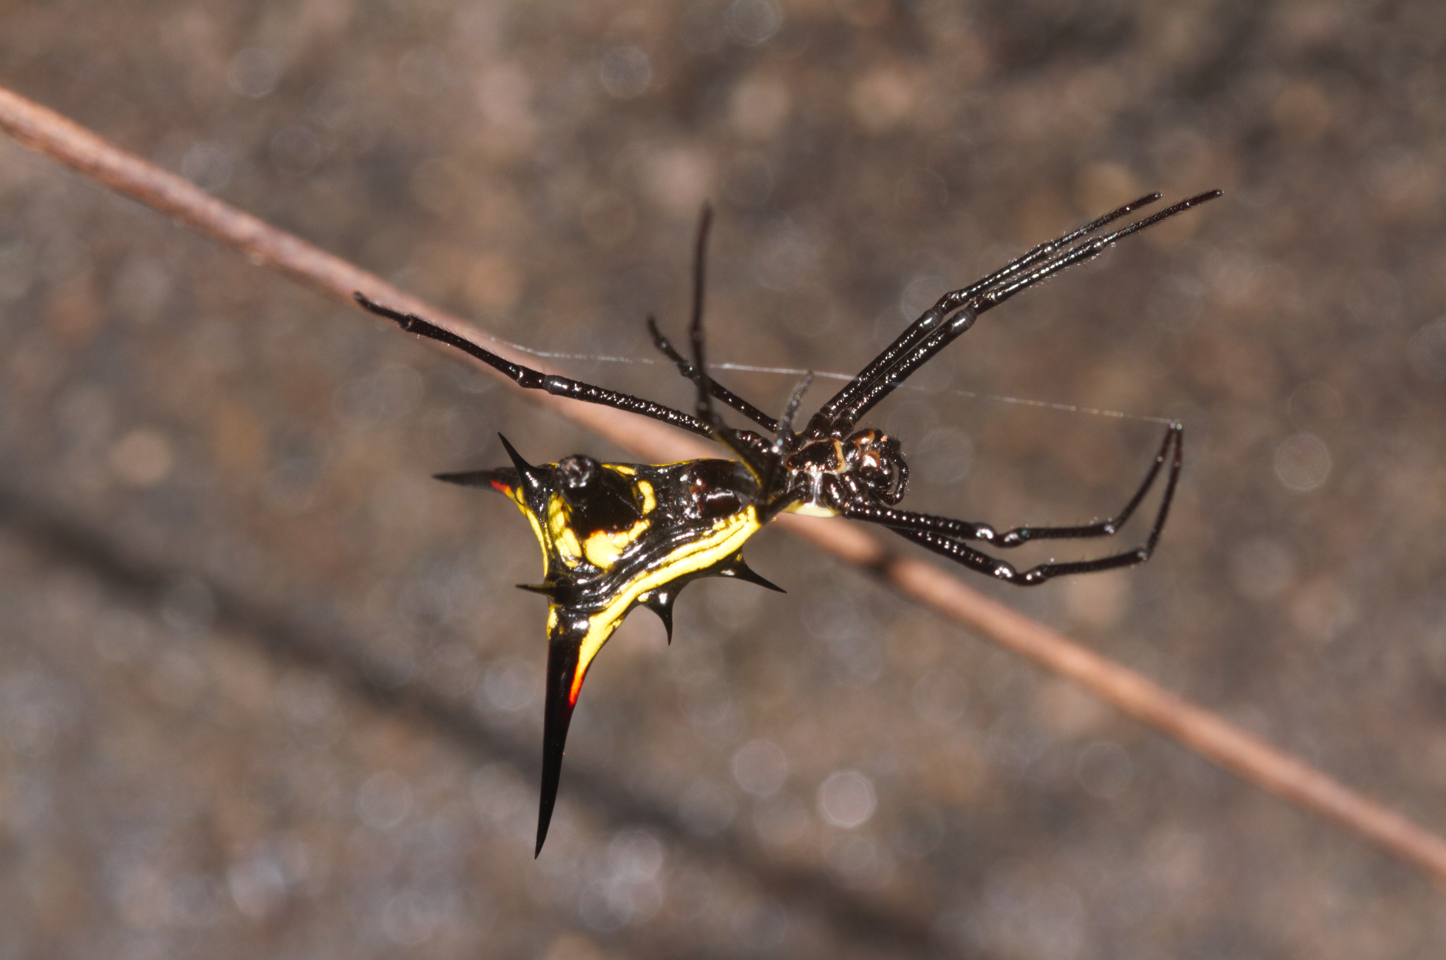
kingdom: Animalia
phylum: Arthropoda
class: Arachnida
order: Araneae
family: Araneidae
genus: Micrathena
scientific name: Micrathena schreibersi
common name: Orb weavers
